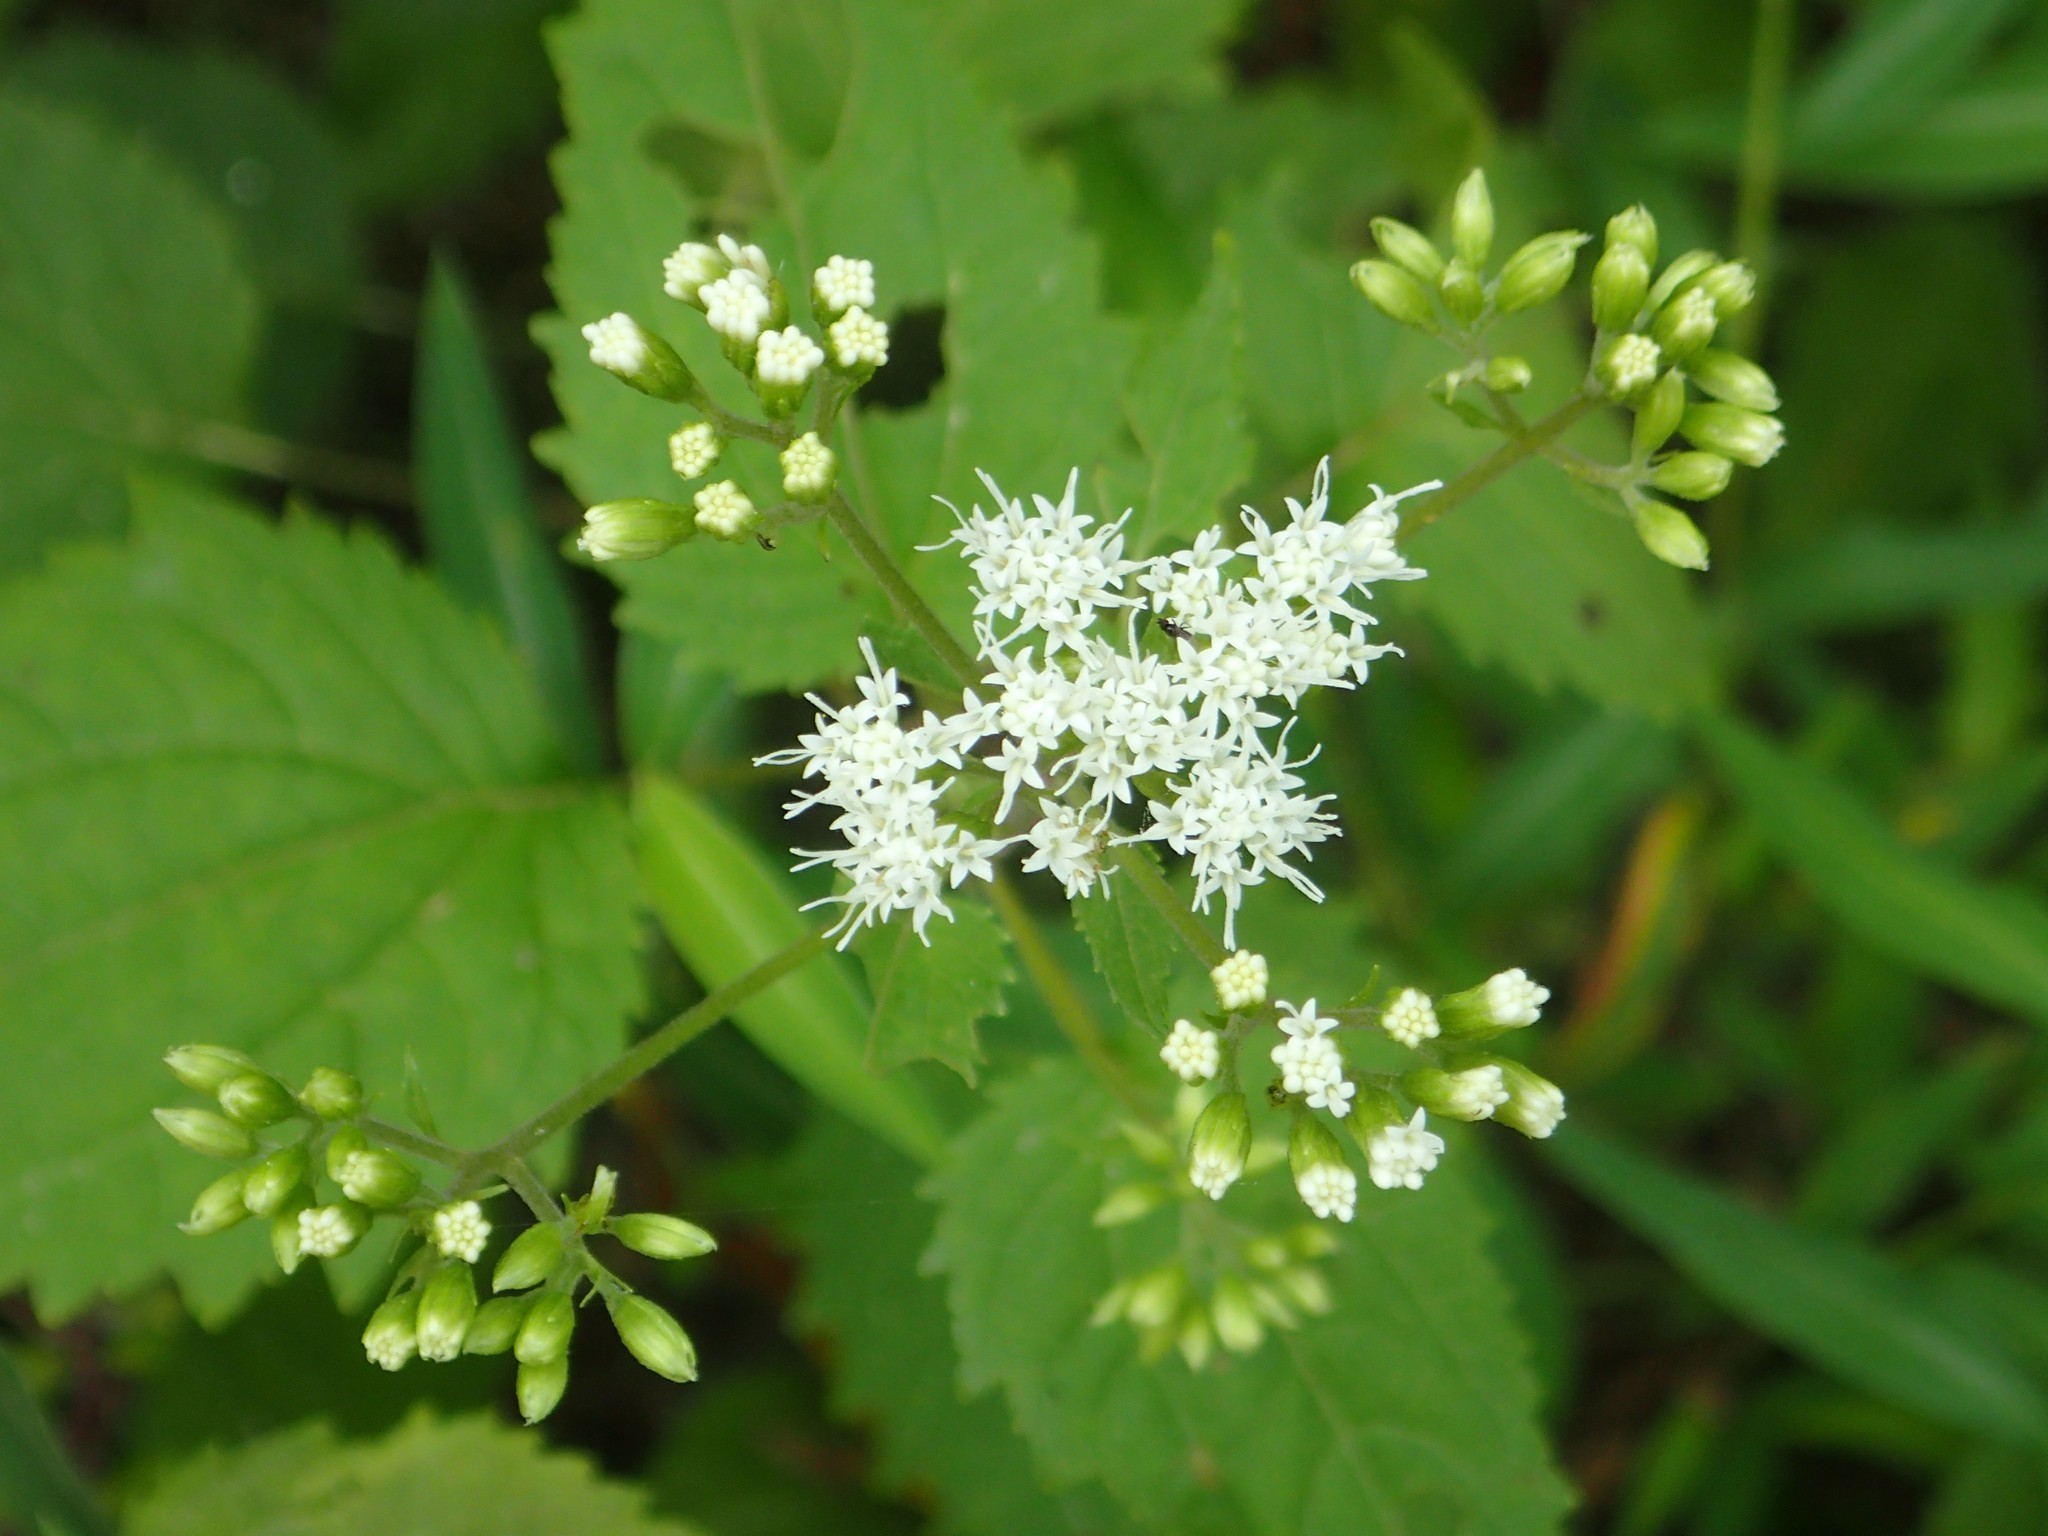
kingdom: Plantae
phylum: Tracheophyta
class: Magnoliopsida
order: Asterales
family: Asteraceae
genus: Ageratina
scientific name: Ageratina altissima
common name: White snakeroot
